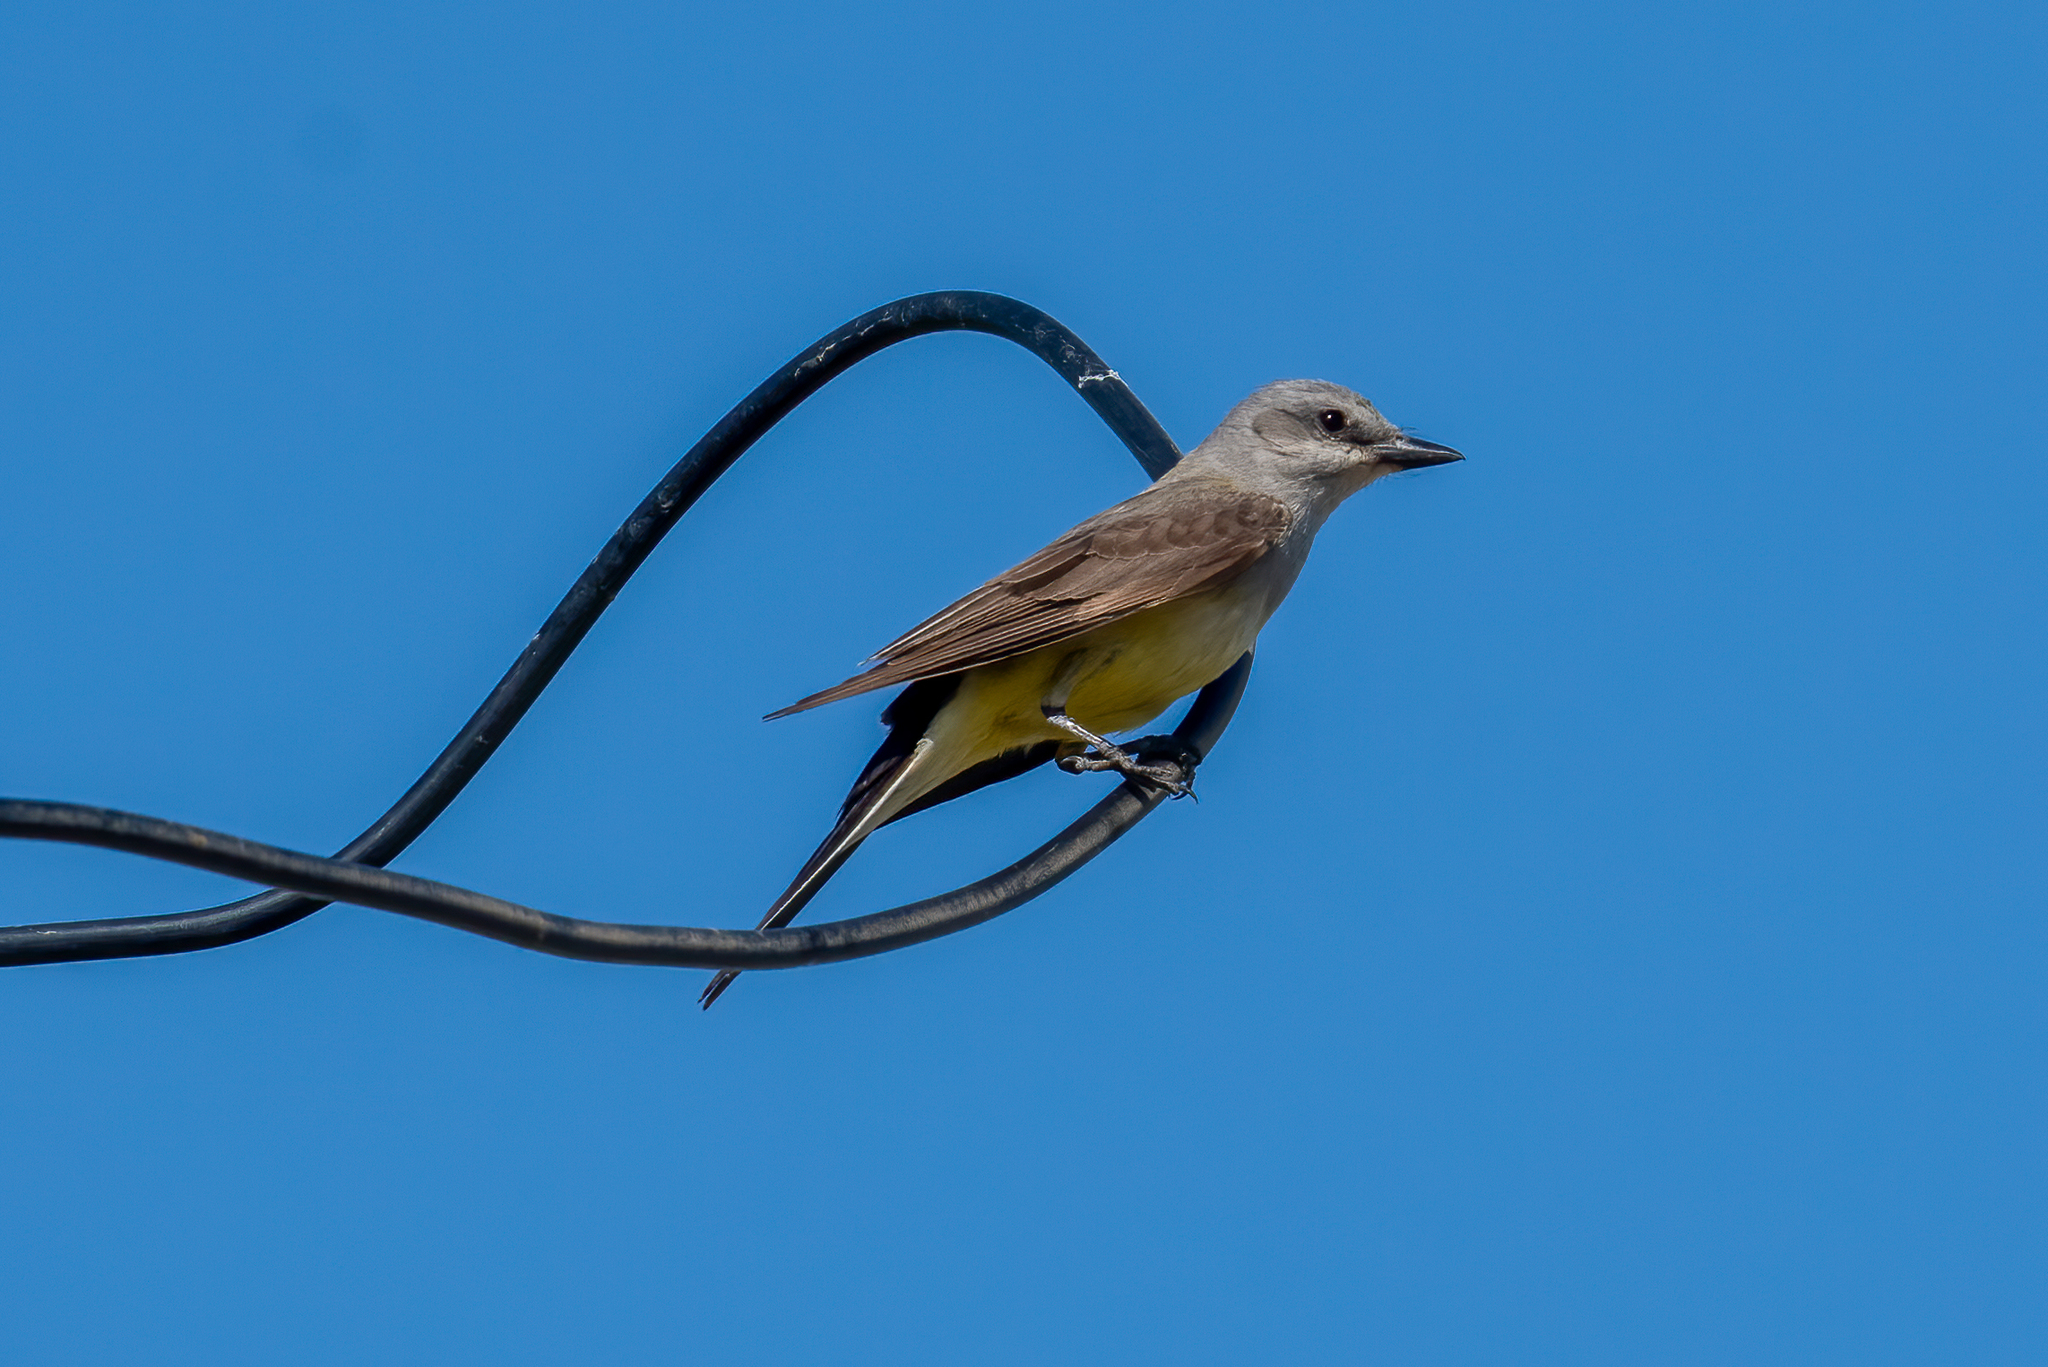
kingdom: Animalia
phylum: Chordata
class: Aves
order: Passeriformes
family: Tyrannidae
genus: Tyrannus
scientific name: Tyrannus verticalis
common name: Western kingbird
